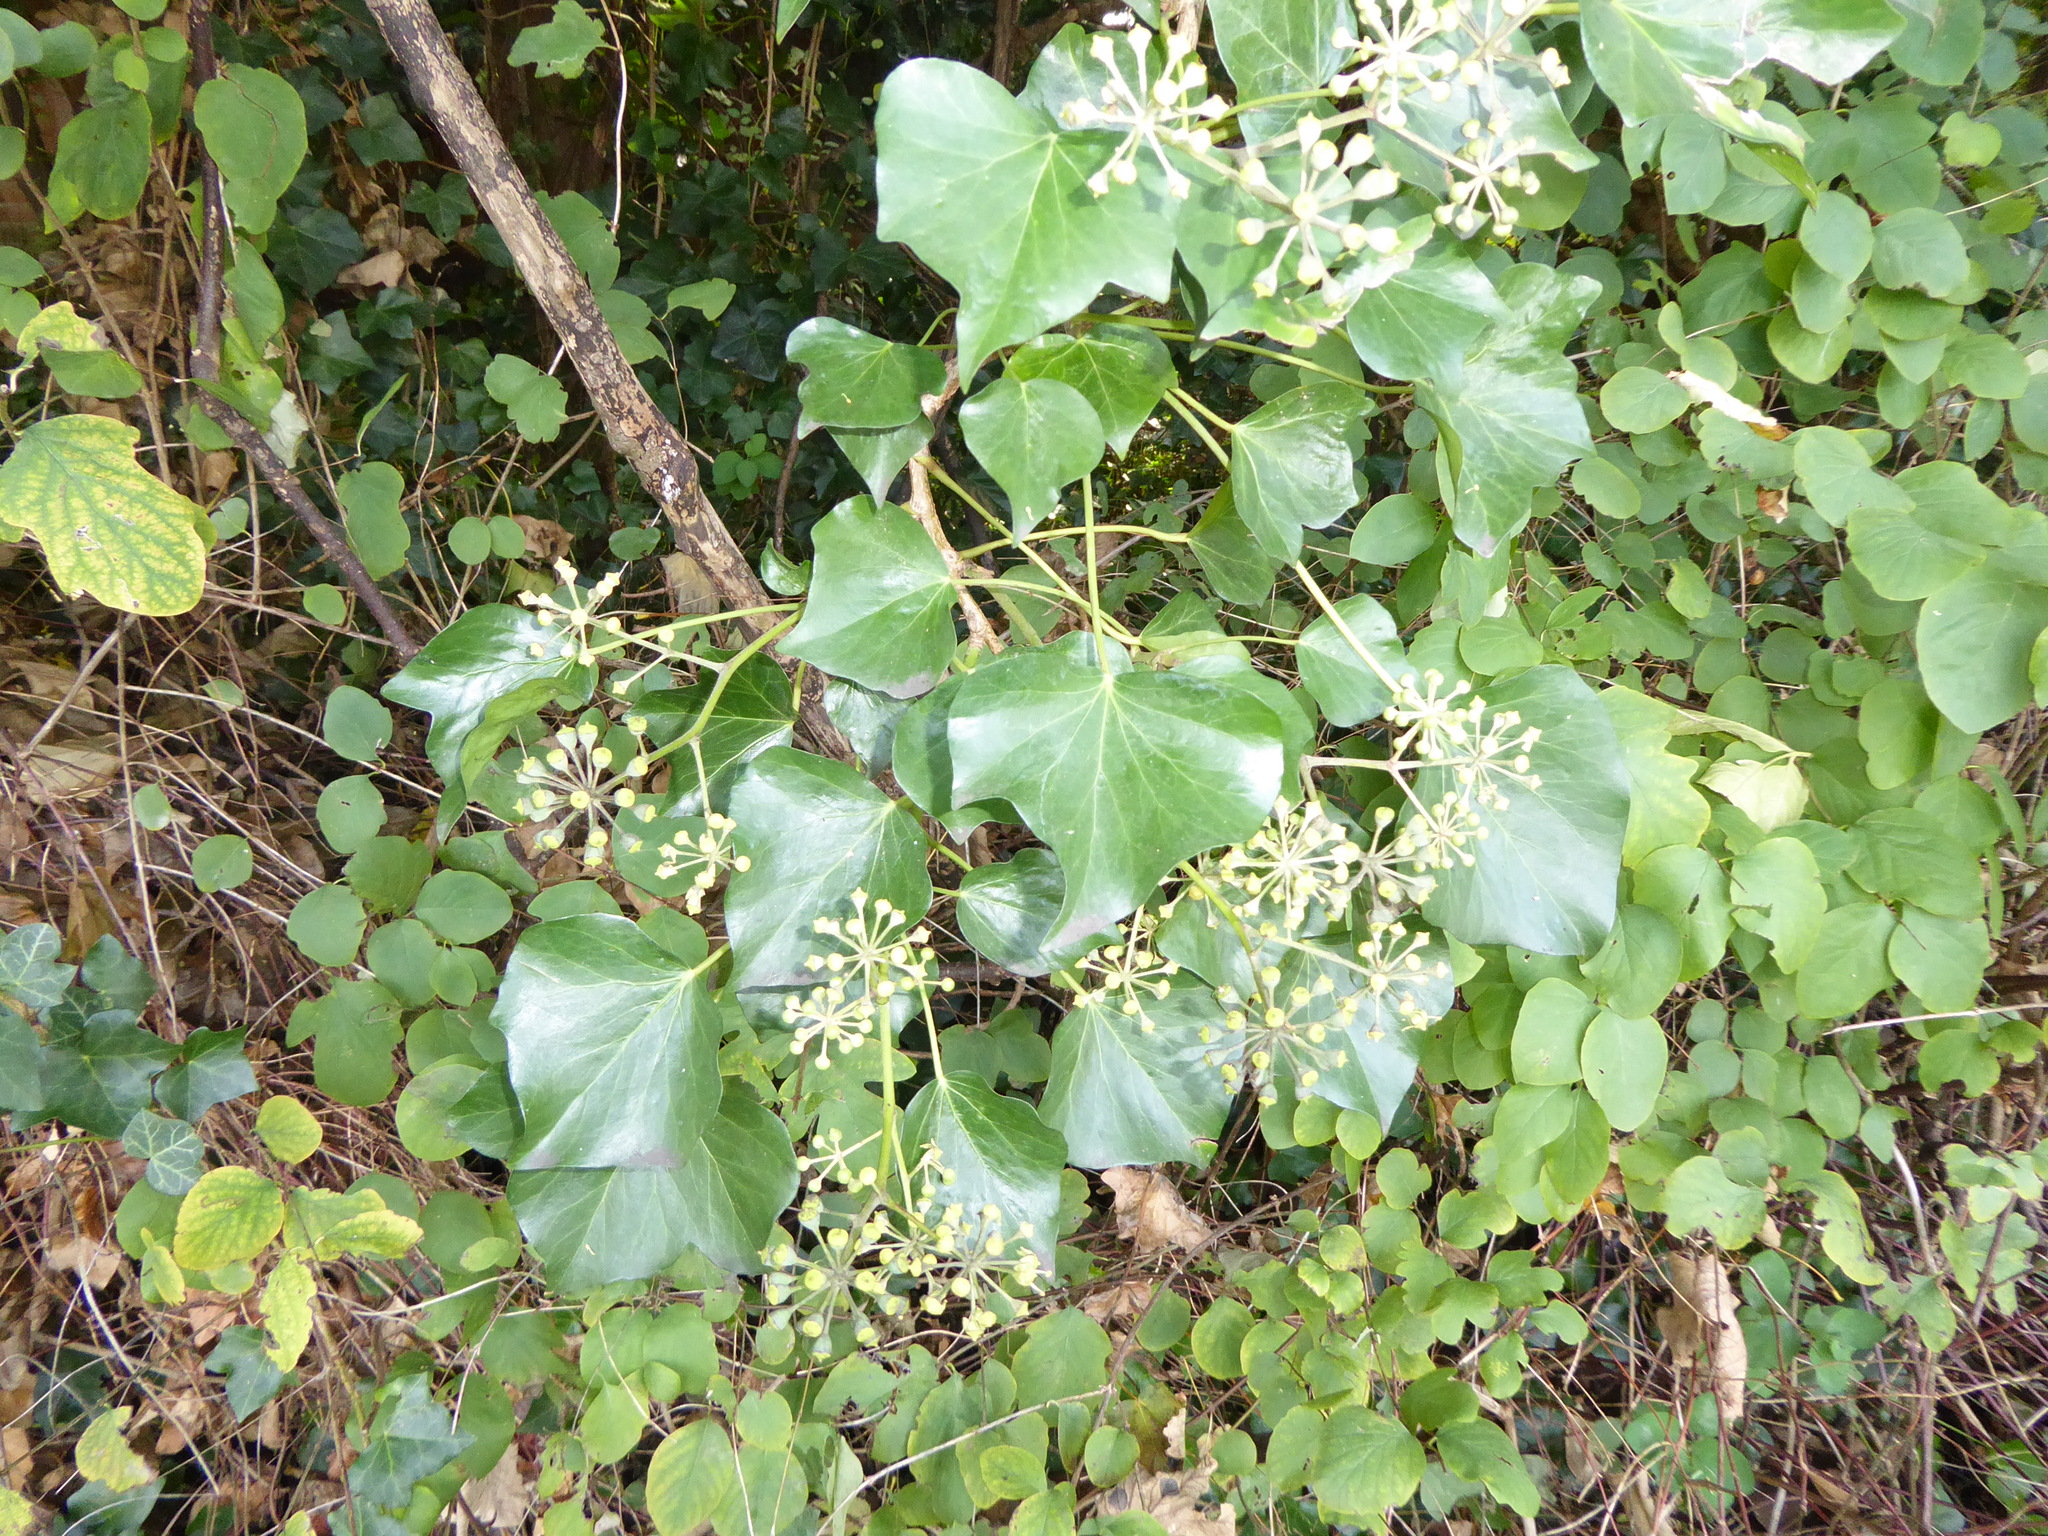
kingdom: Plantae
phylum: Tracheophyta
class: Magnoliopsida
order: Apiales
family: Araliaceae
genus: Hedera
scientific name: Hedera helix
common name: Ivy
